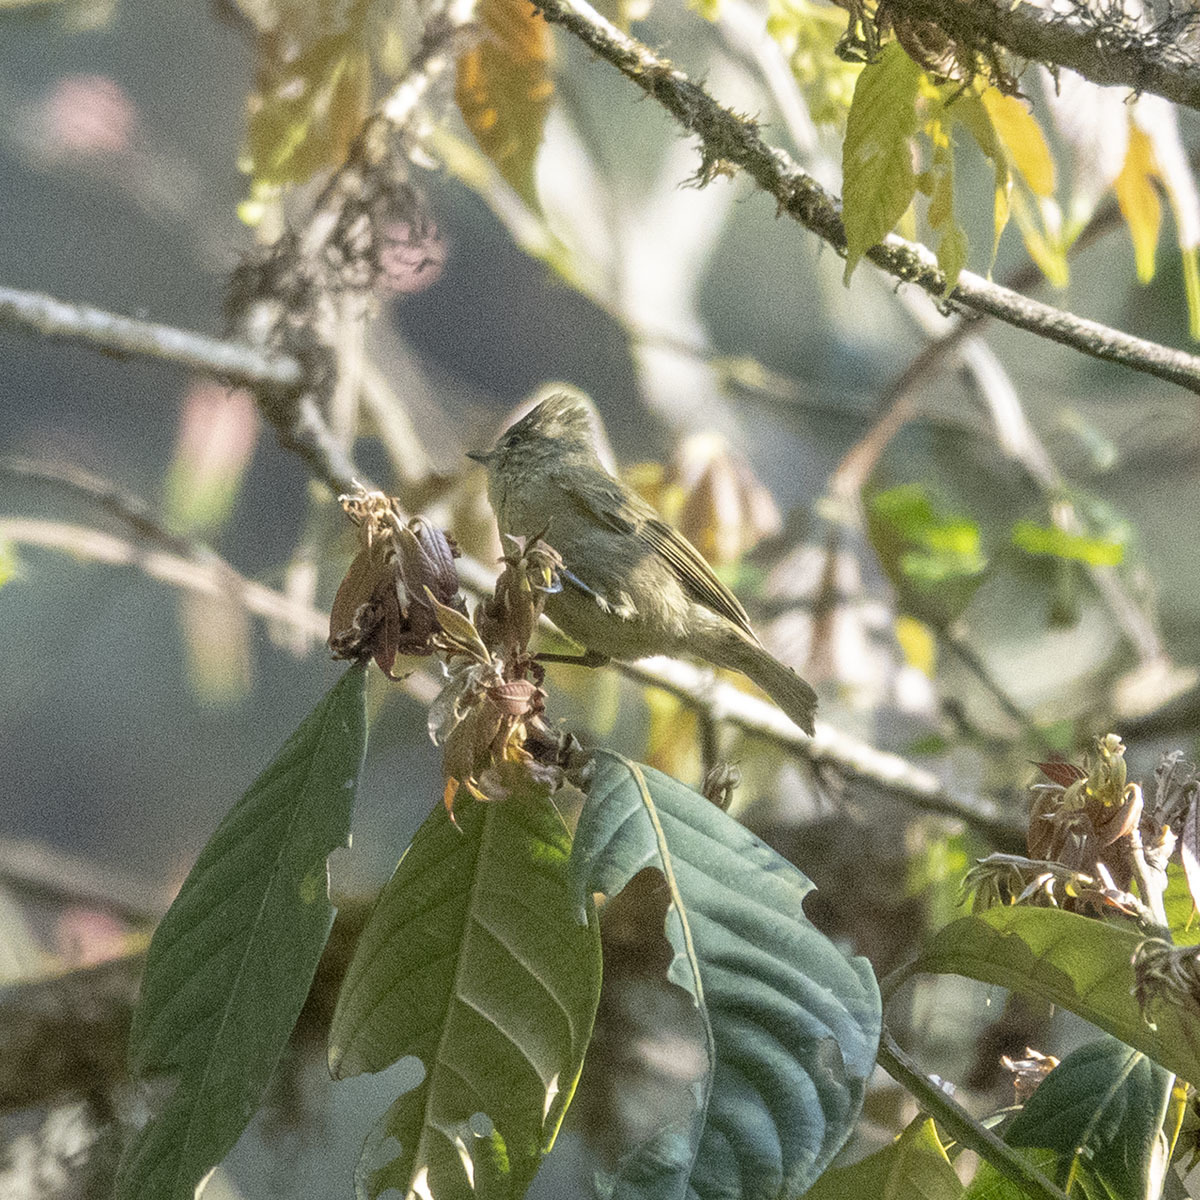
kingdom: Animalia
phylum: Chordata
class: Aves
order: Passeriformes
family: Paridae
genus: Sylviparus
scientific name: Sylviparus modestus
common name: Yellow-browed tit
